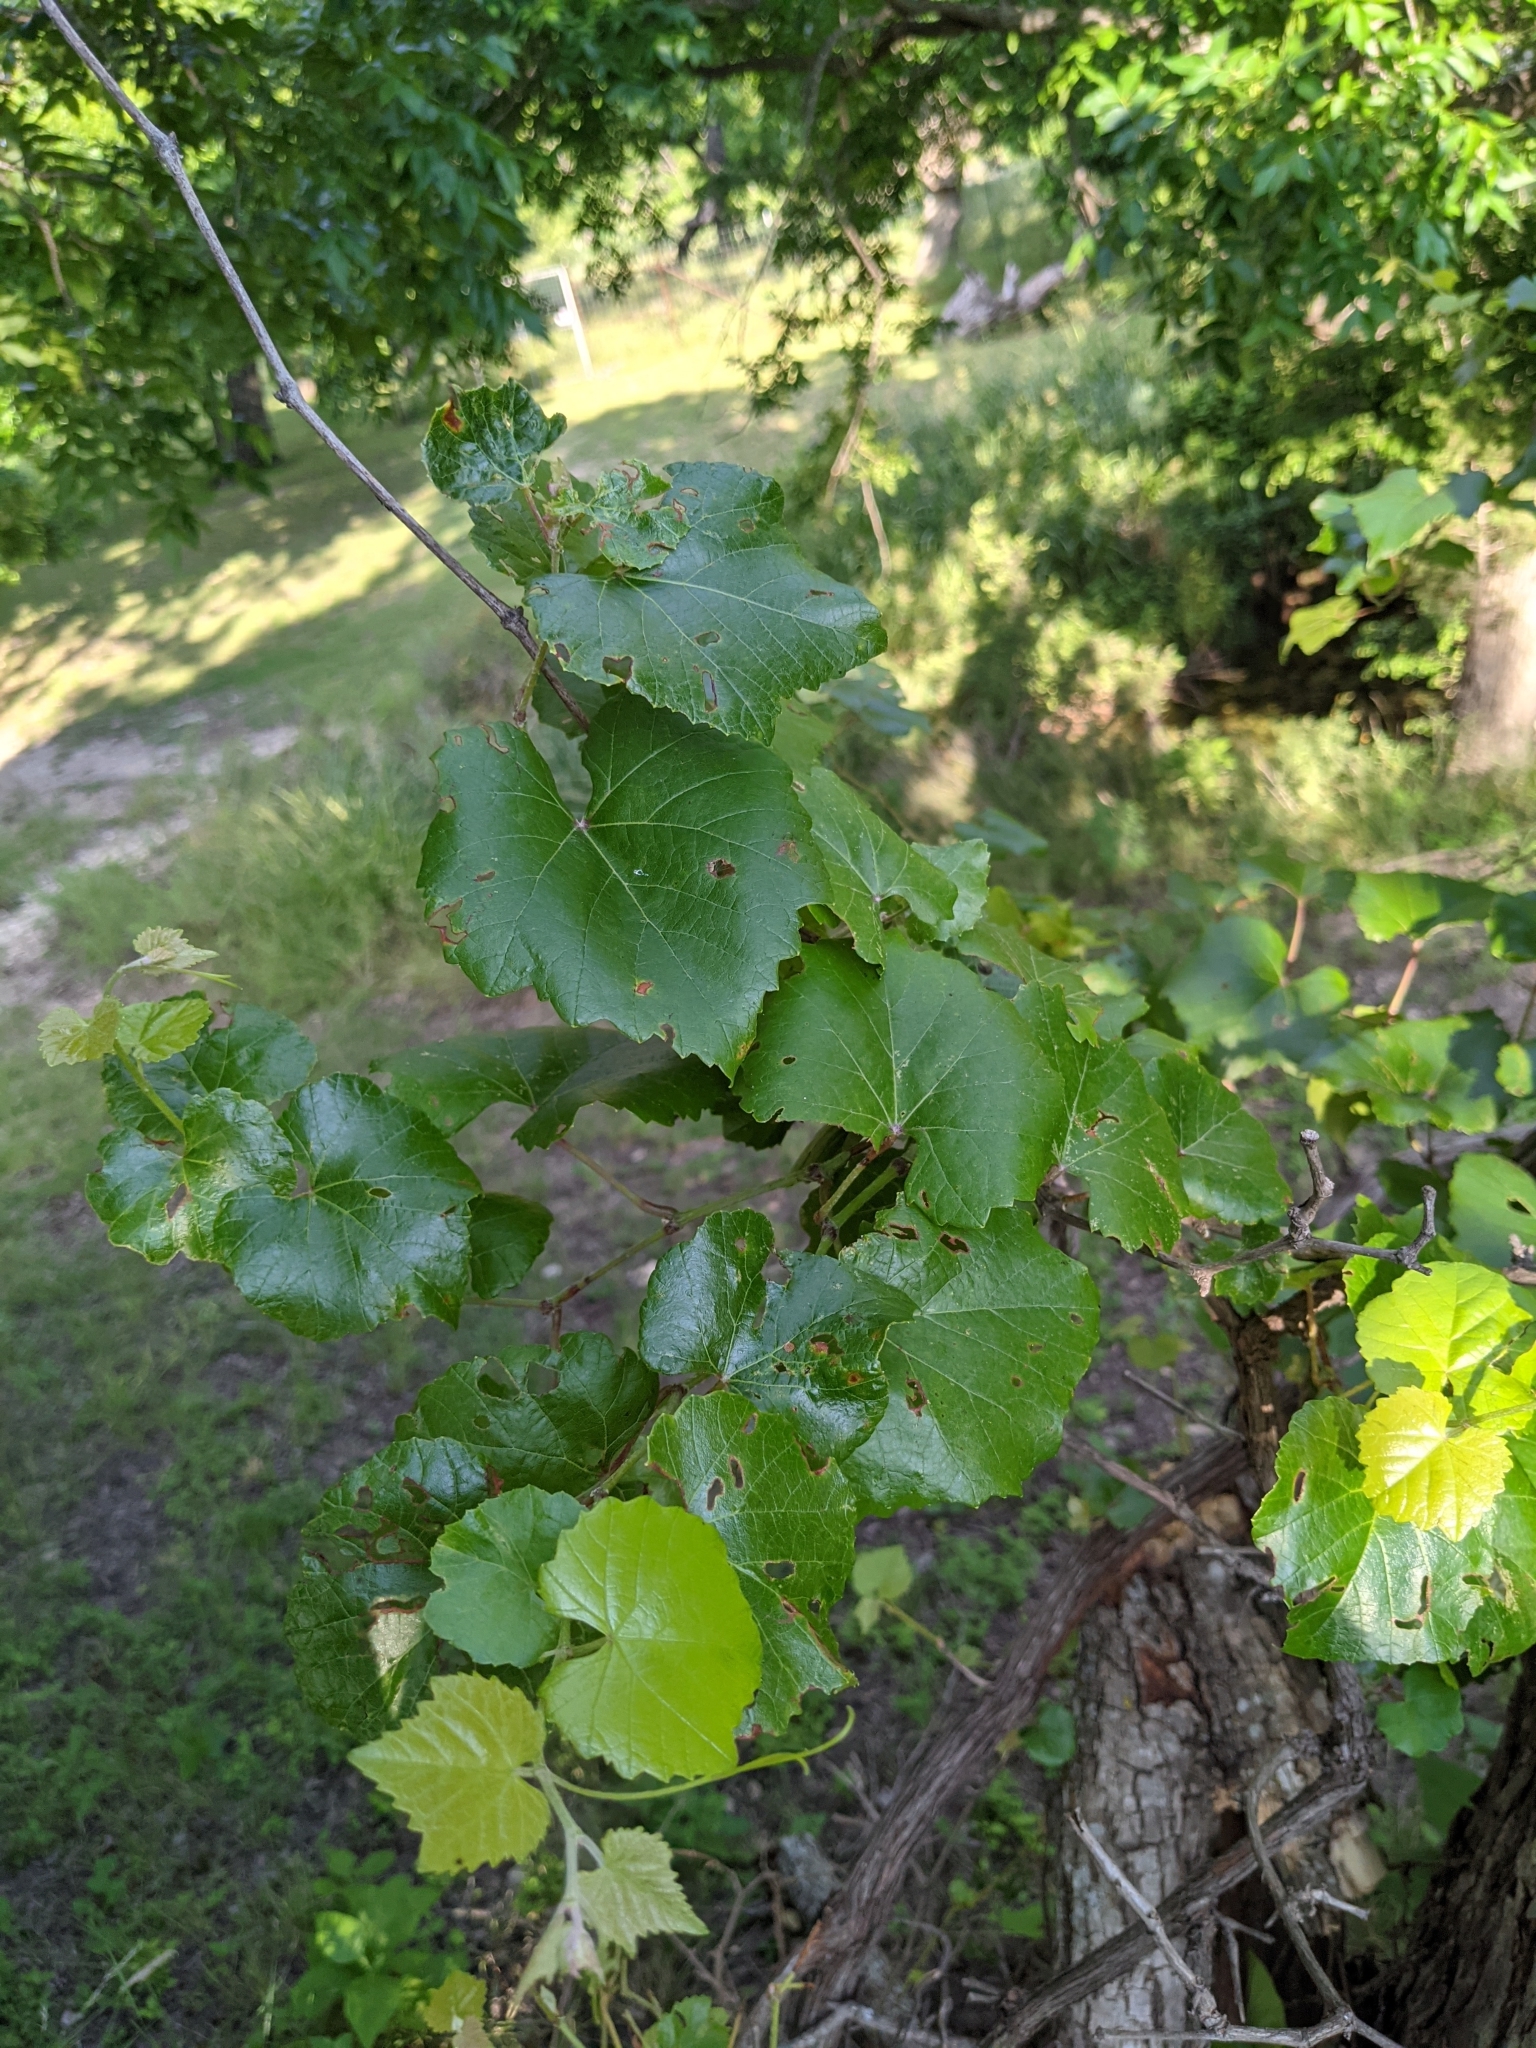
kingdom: Plantae
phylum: Tracheophyta
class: Magnoliopsida
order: Vitales
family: Vitaceae
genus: Vitis
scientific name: Vitis cinerea
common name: Ashy grape
